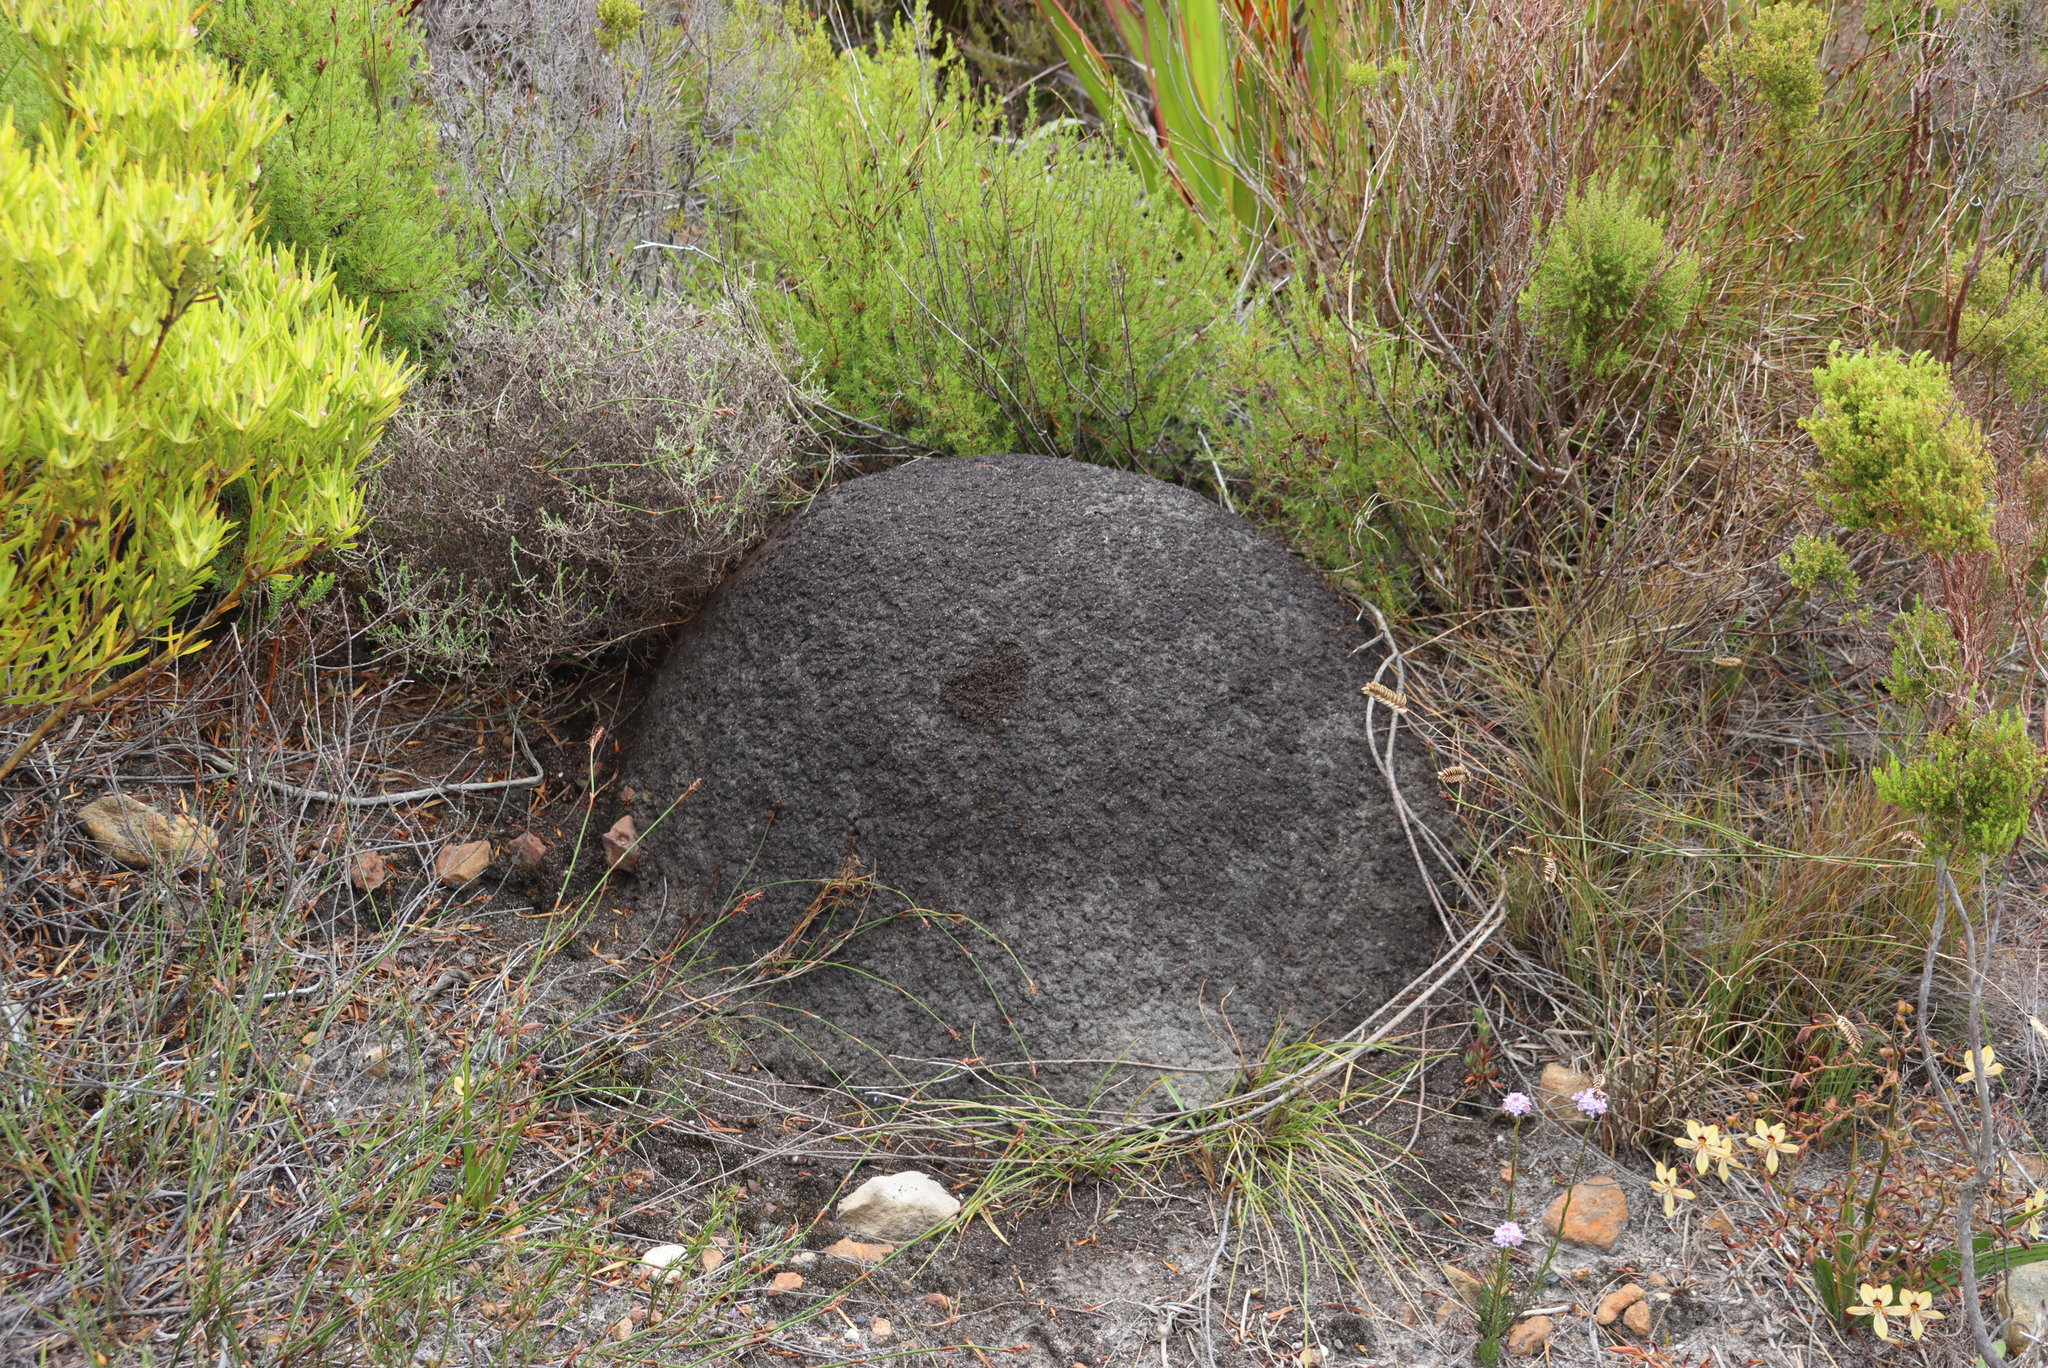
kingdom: Animalia
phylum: Arthropoda
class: Insecta
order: Blattodea
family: Termitidae
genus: Amitermes
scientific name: Amitermes hastatus
